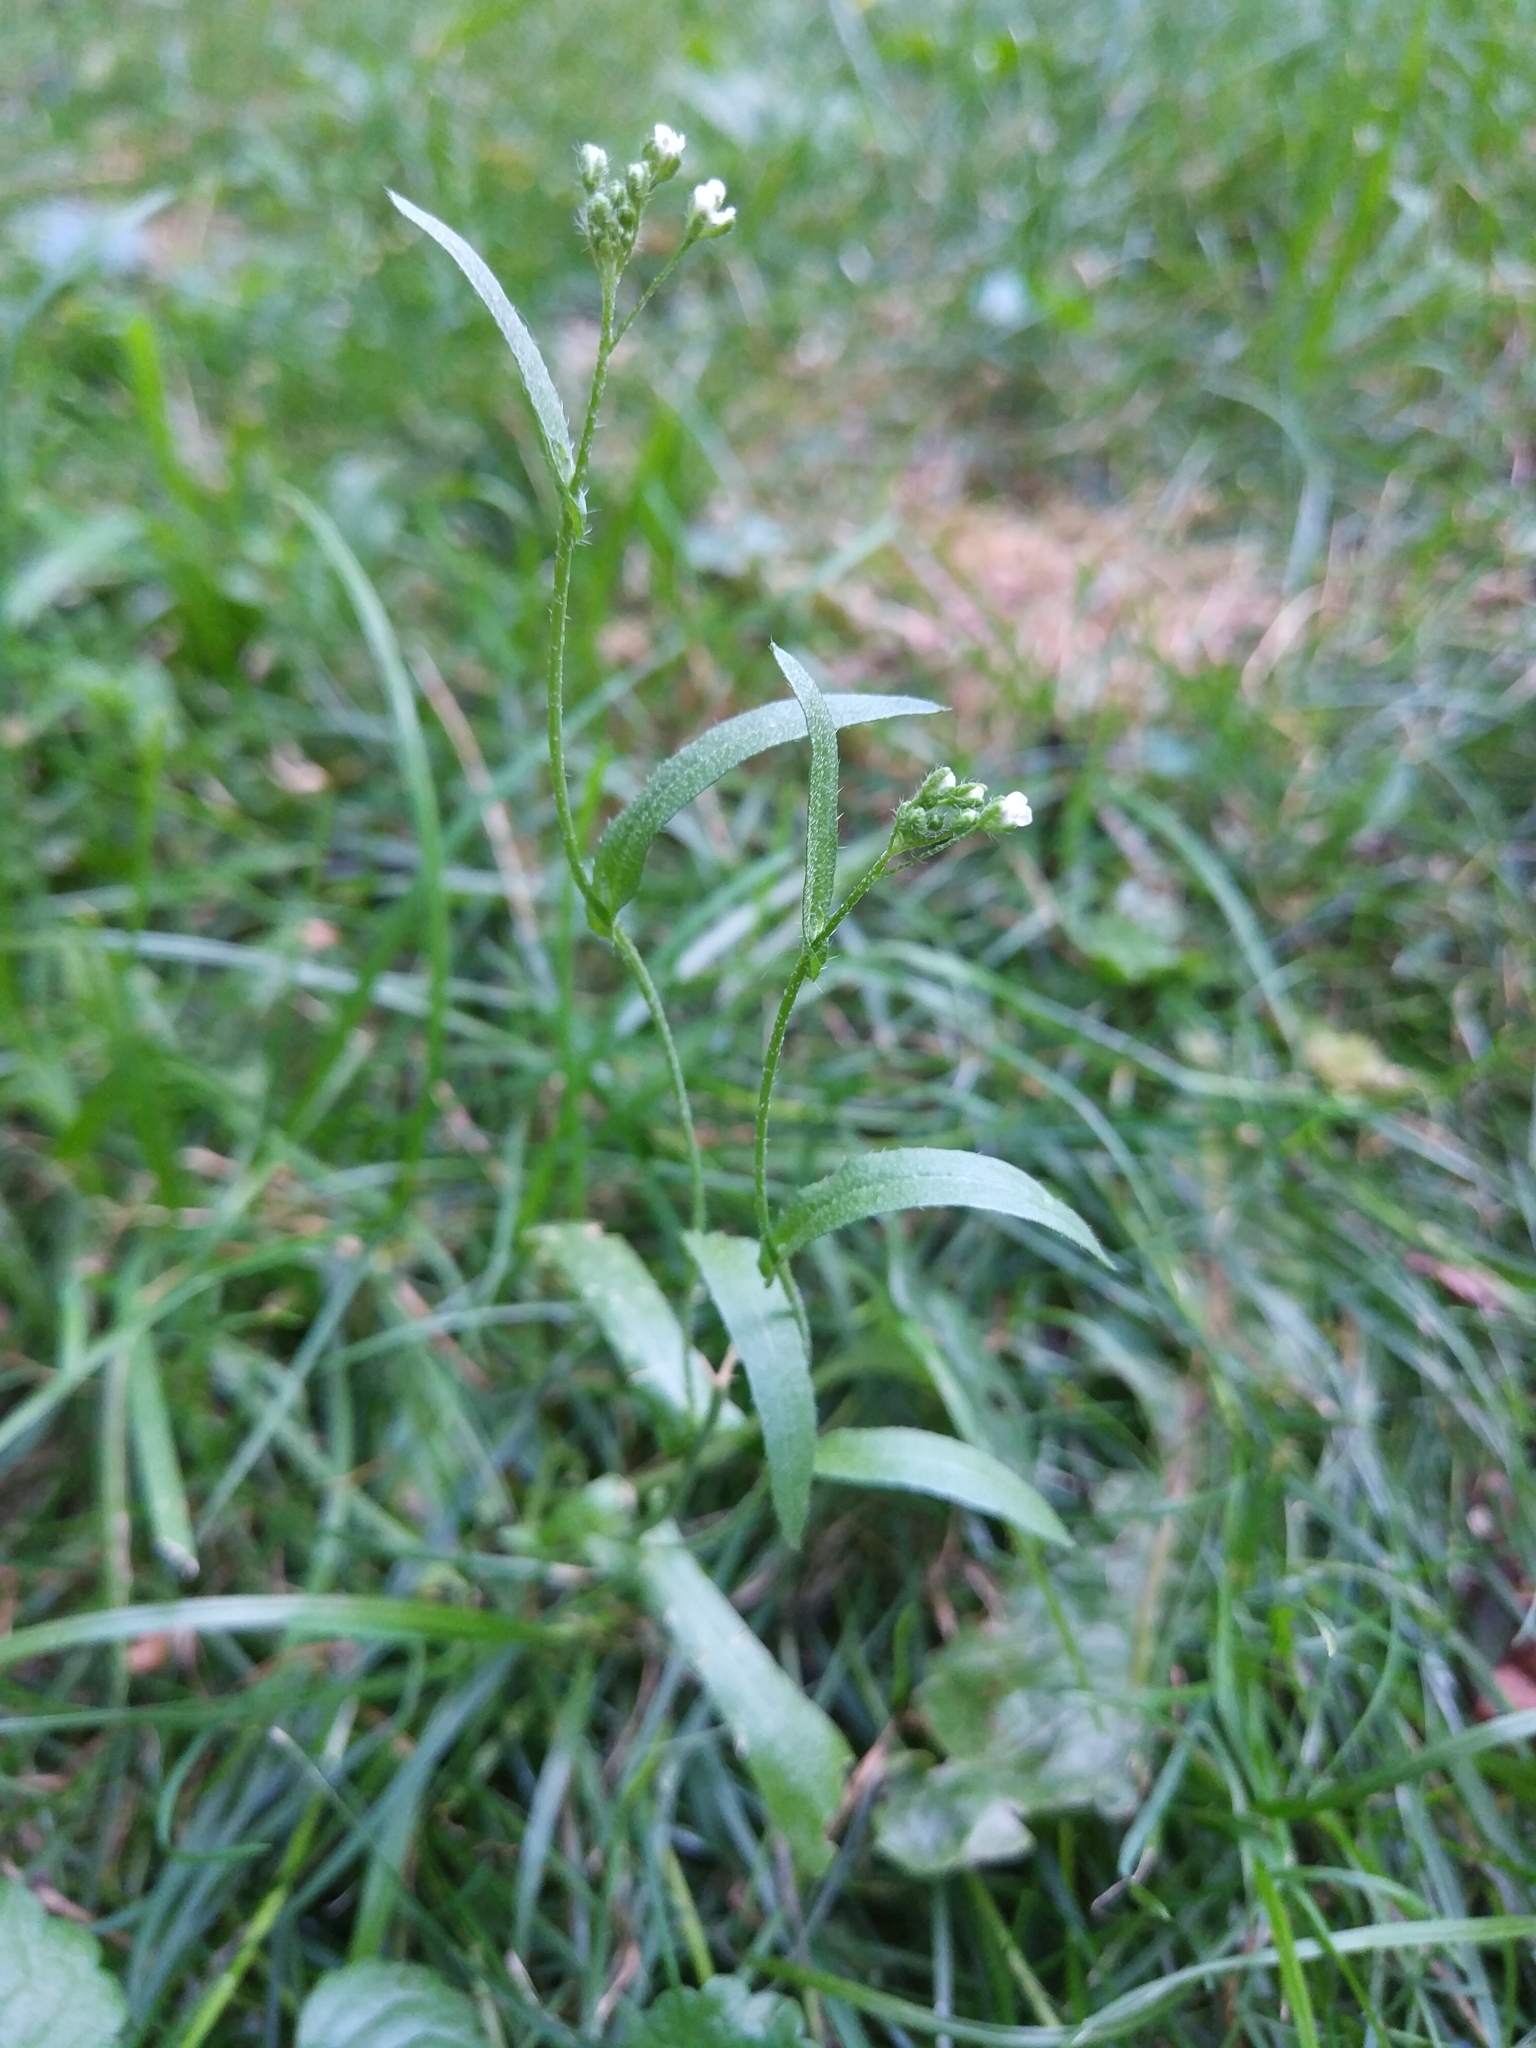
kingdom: Plantae
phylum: Tracheophyta
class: Magnoliopsida
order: Brassicales
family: Brassicaceae
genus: Capsella
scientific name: Capsella bursa-pastoris
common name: Shepherd's purse
